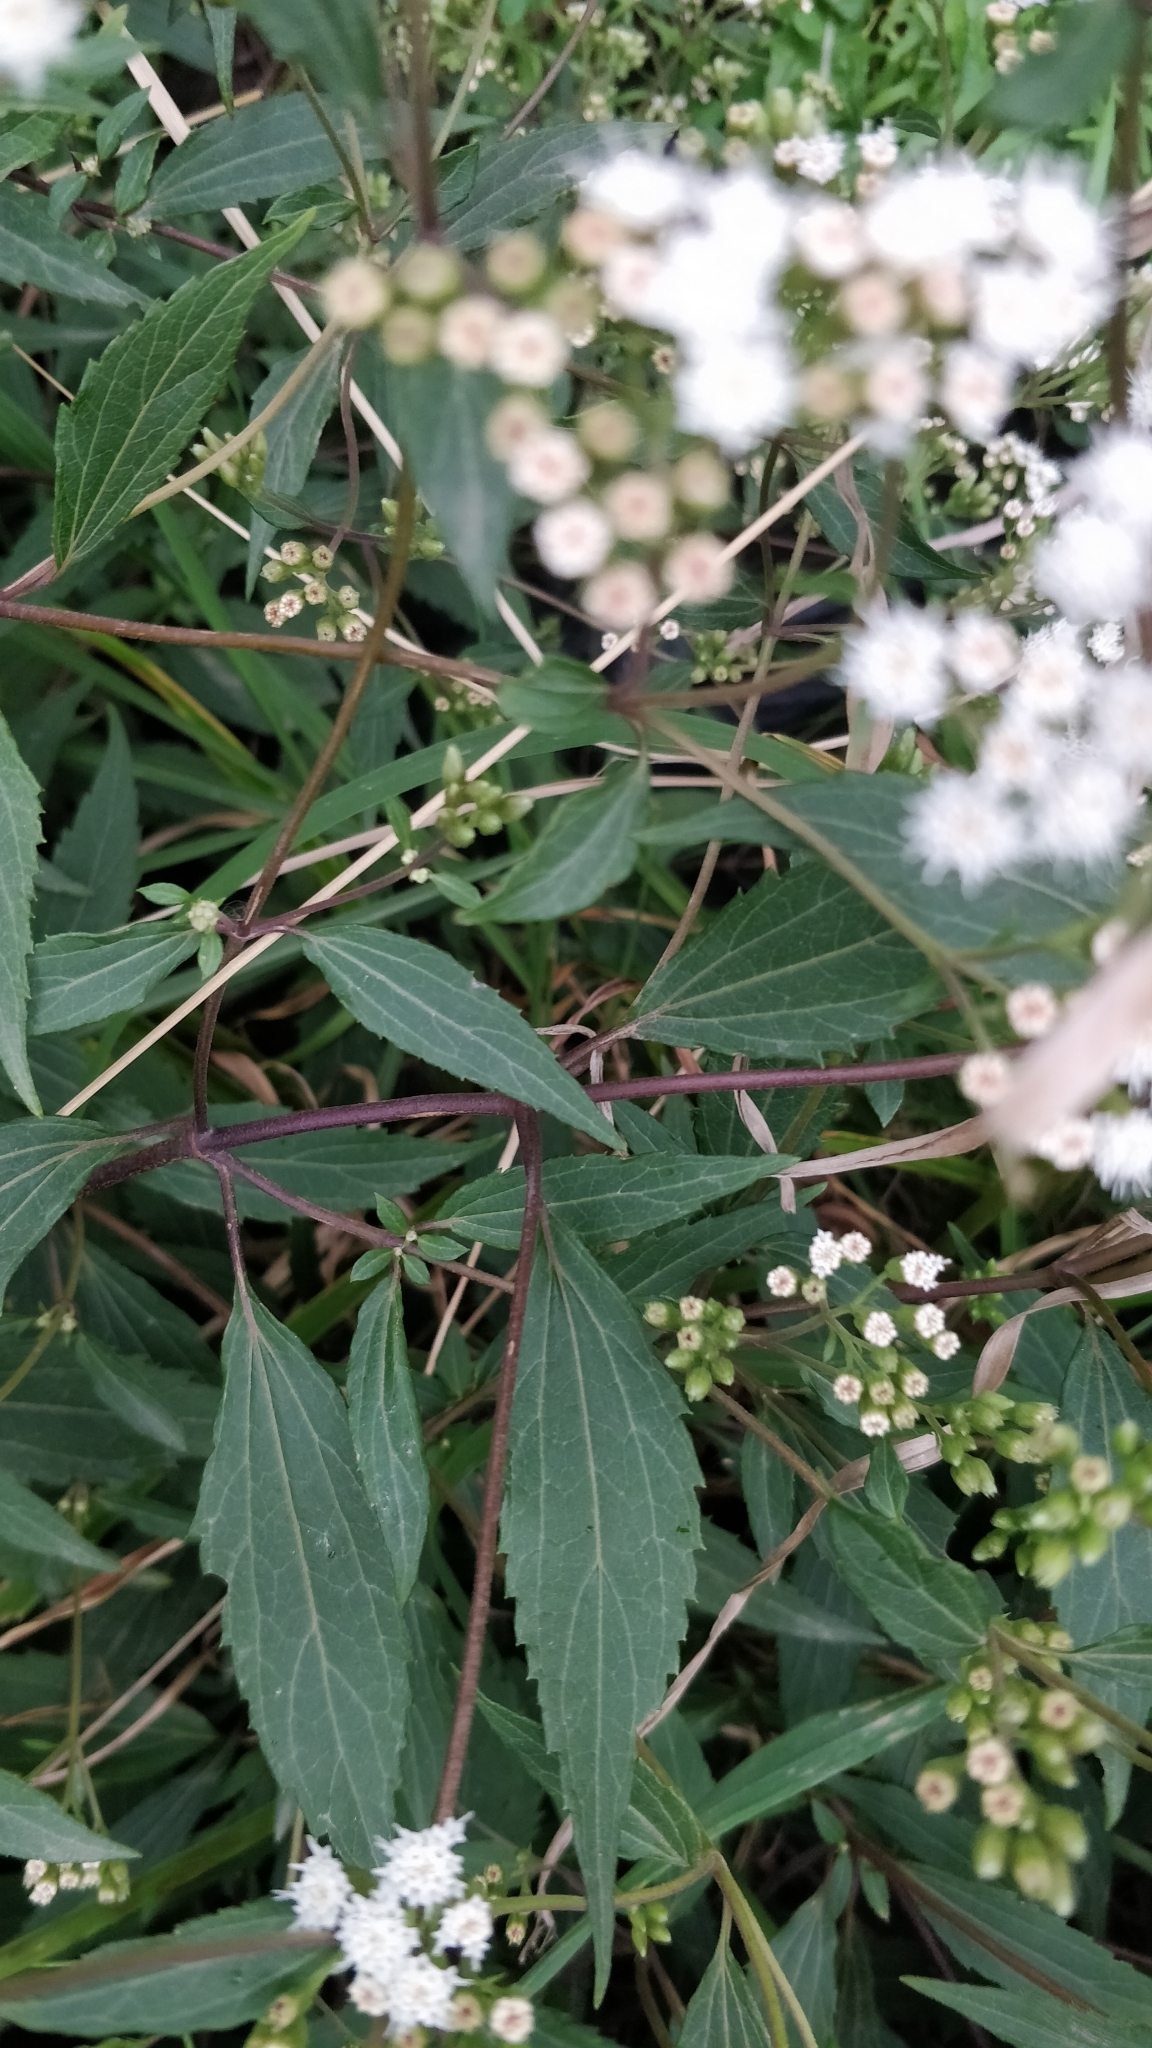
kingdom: Plantae
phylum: Tracheophyta
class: Magnoliopsida
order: Asterales
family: Asteraceae
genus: Ageratina
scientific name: Ageratina riparia
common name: Creeping croftonweed
